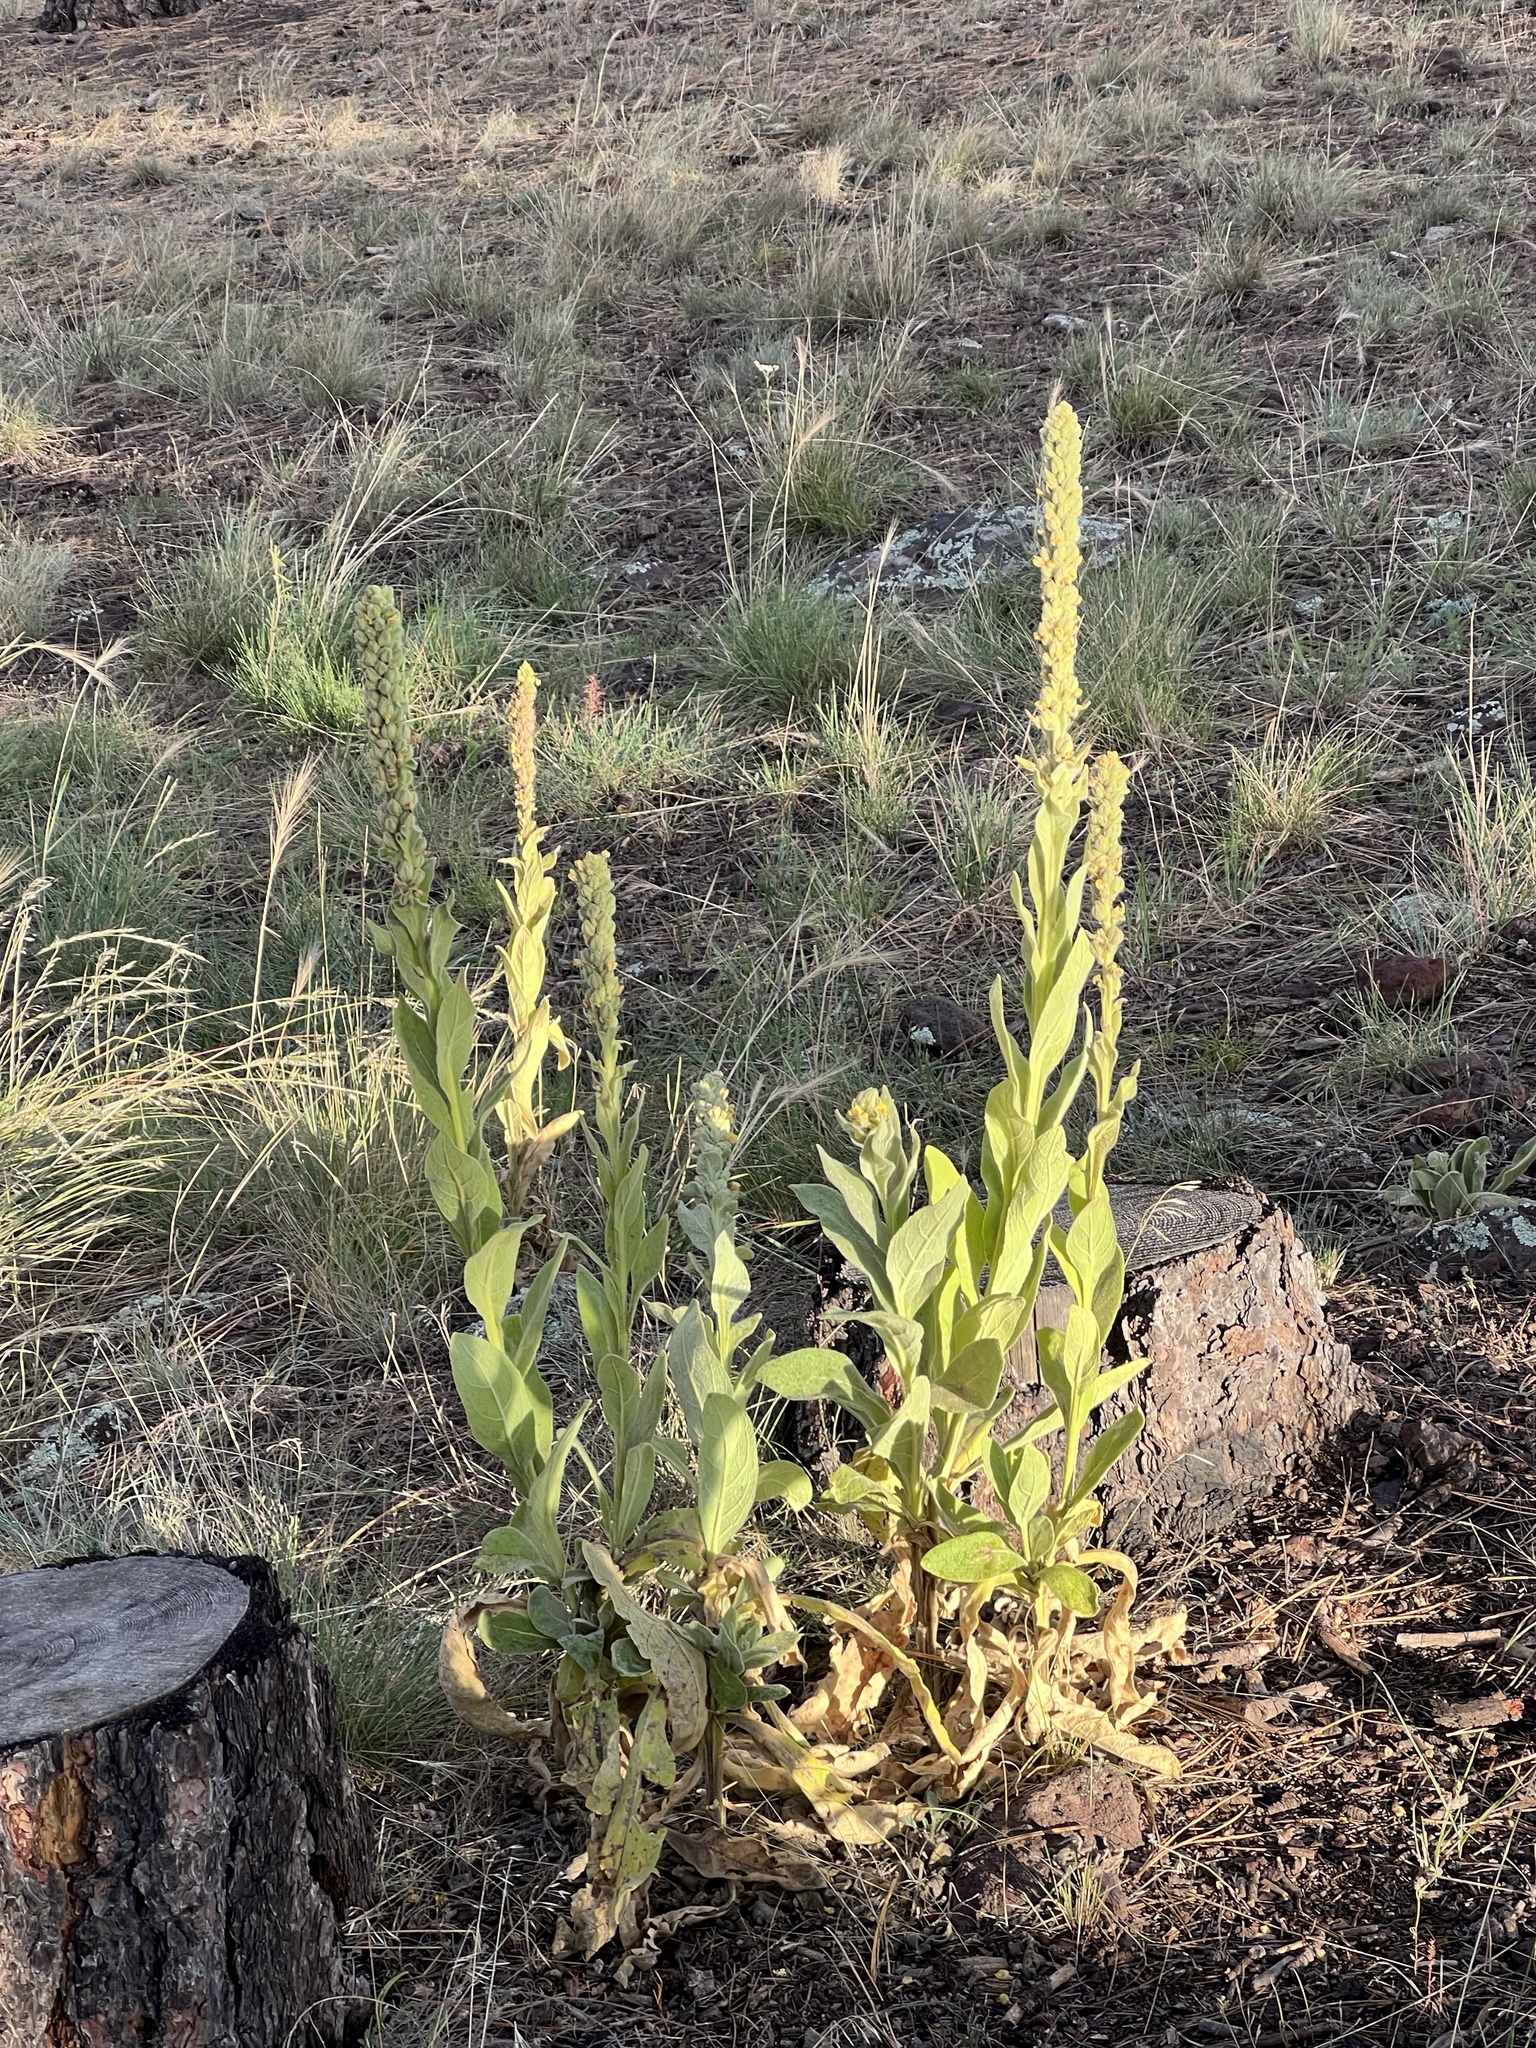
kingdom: Plantae
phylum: Tracheophyta
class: Magnoliopsida
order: Lamiales
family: Scrophulariaceae
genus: Verbascum
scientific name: Verbascum thapsus
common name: Common mullein
